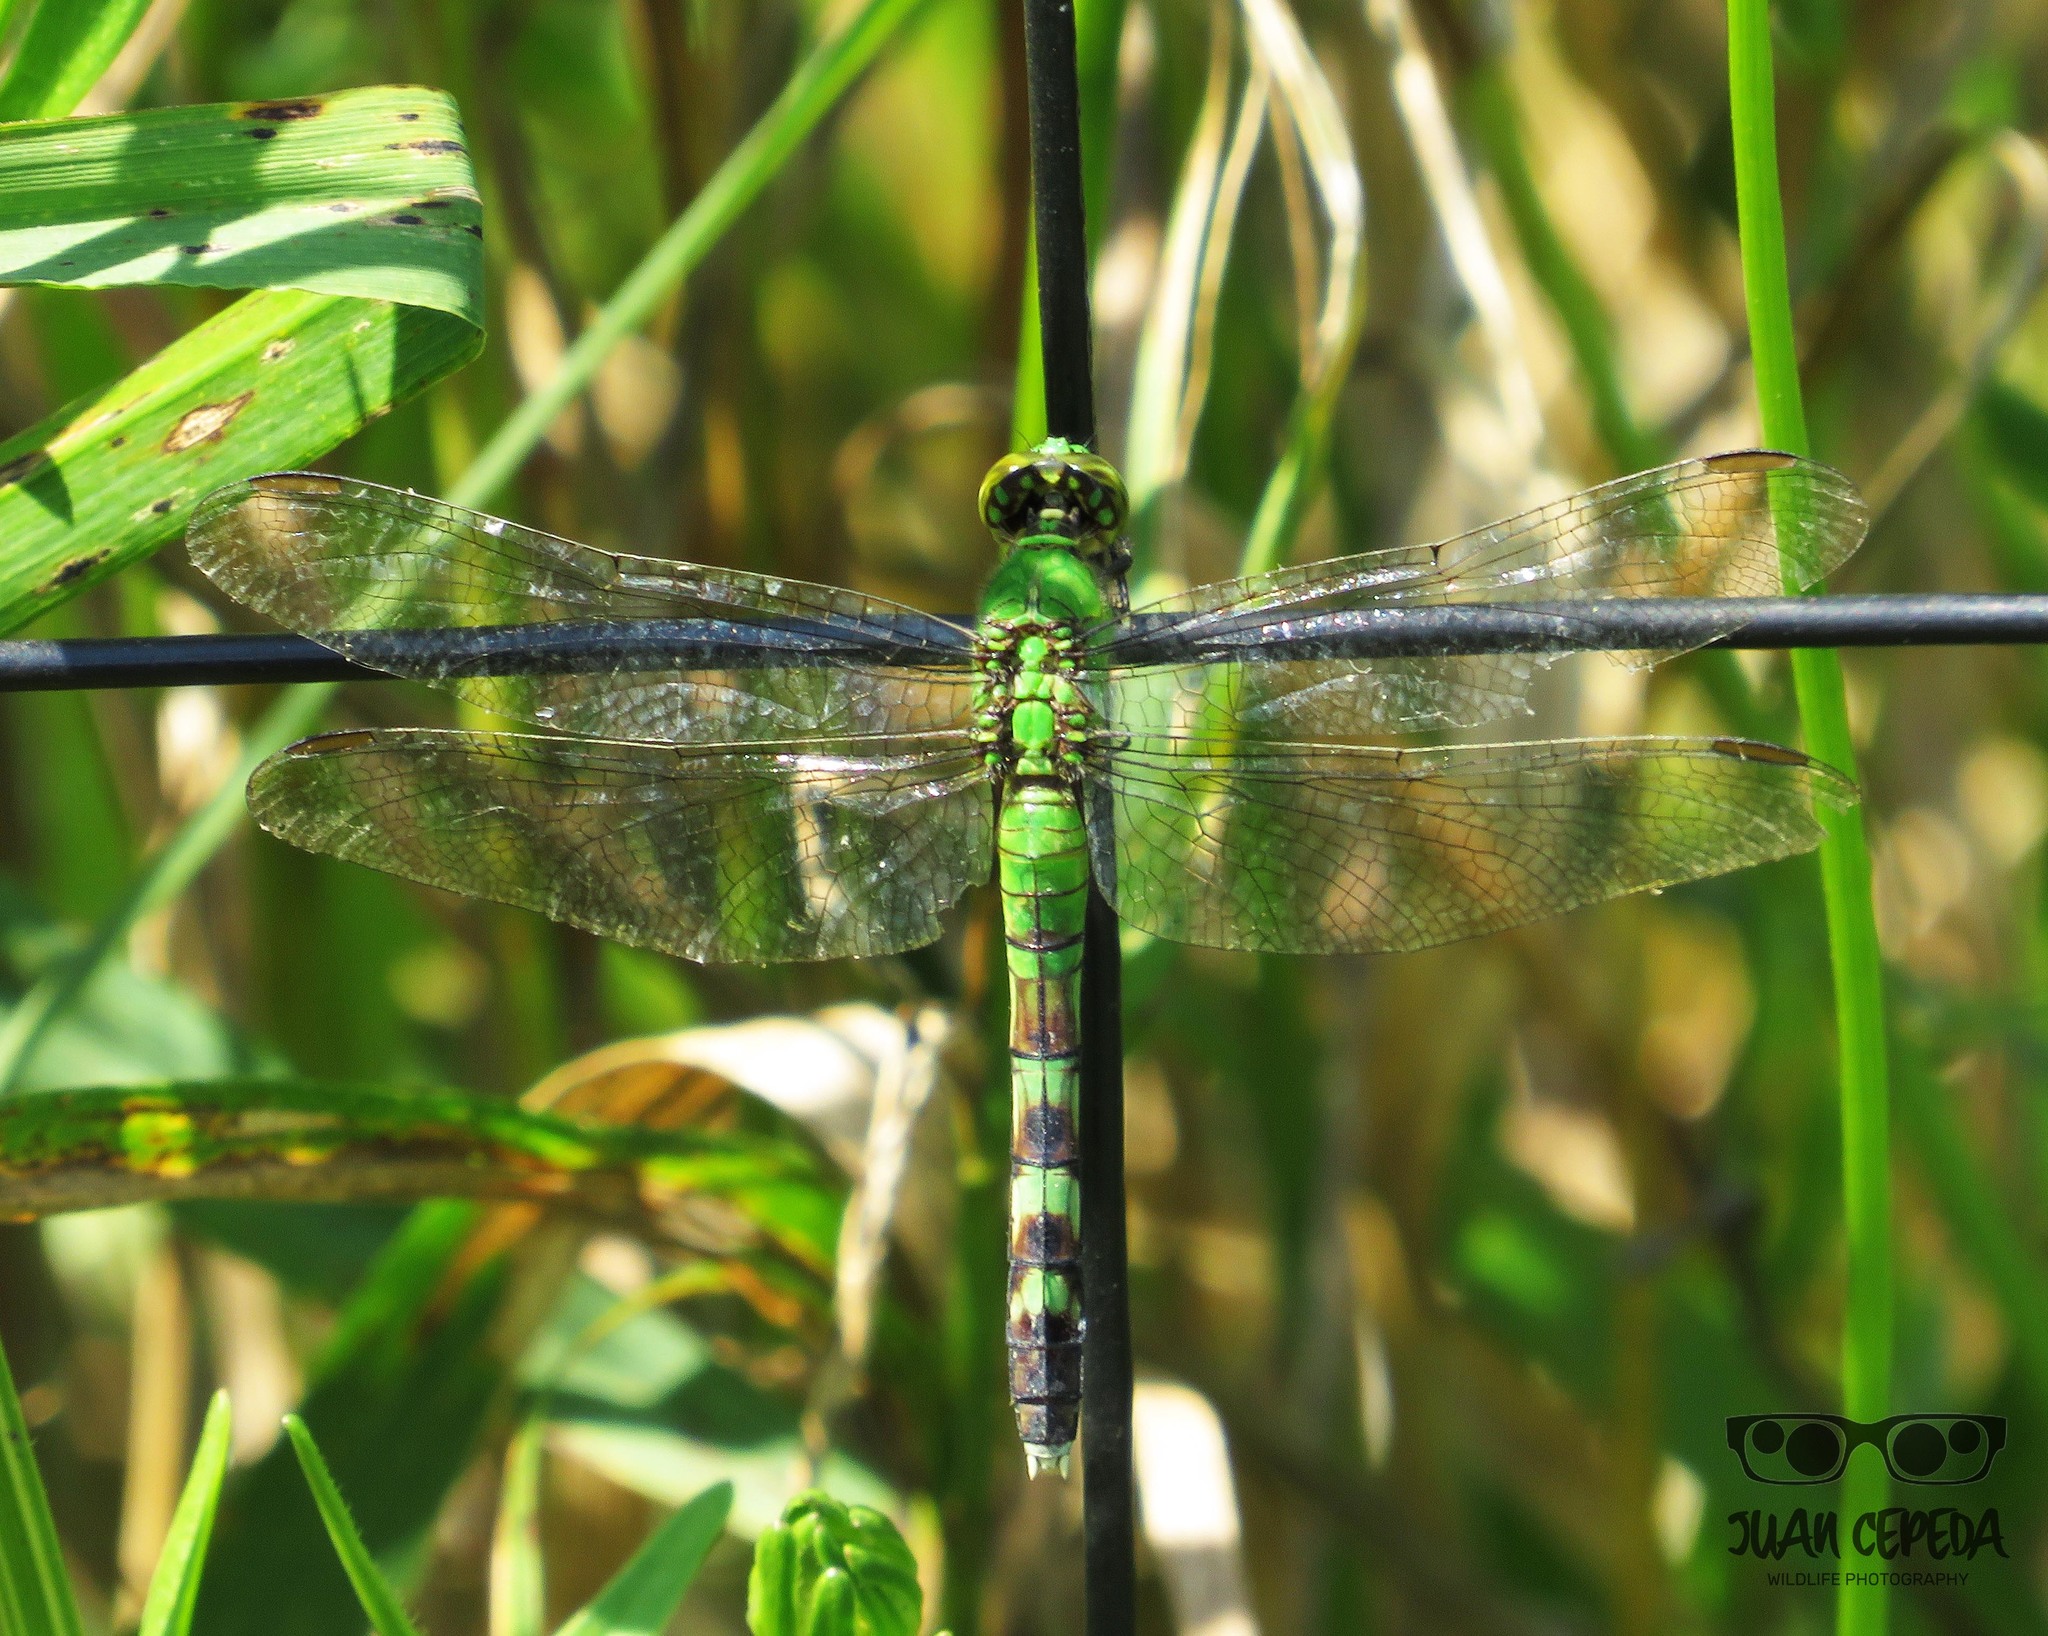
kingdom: Animalia
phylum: Arthropoda
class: Insecta
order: Odonata
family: Libellulidae
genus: Erythemis
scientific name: Erythemis simplicicollis
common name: Eastern pondhawk
